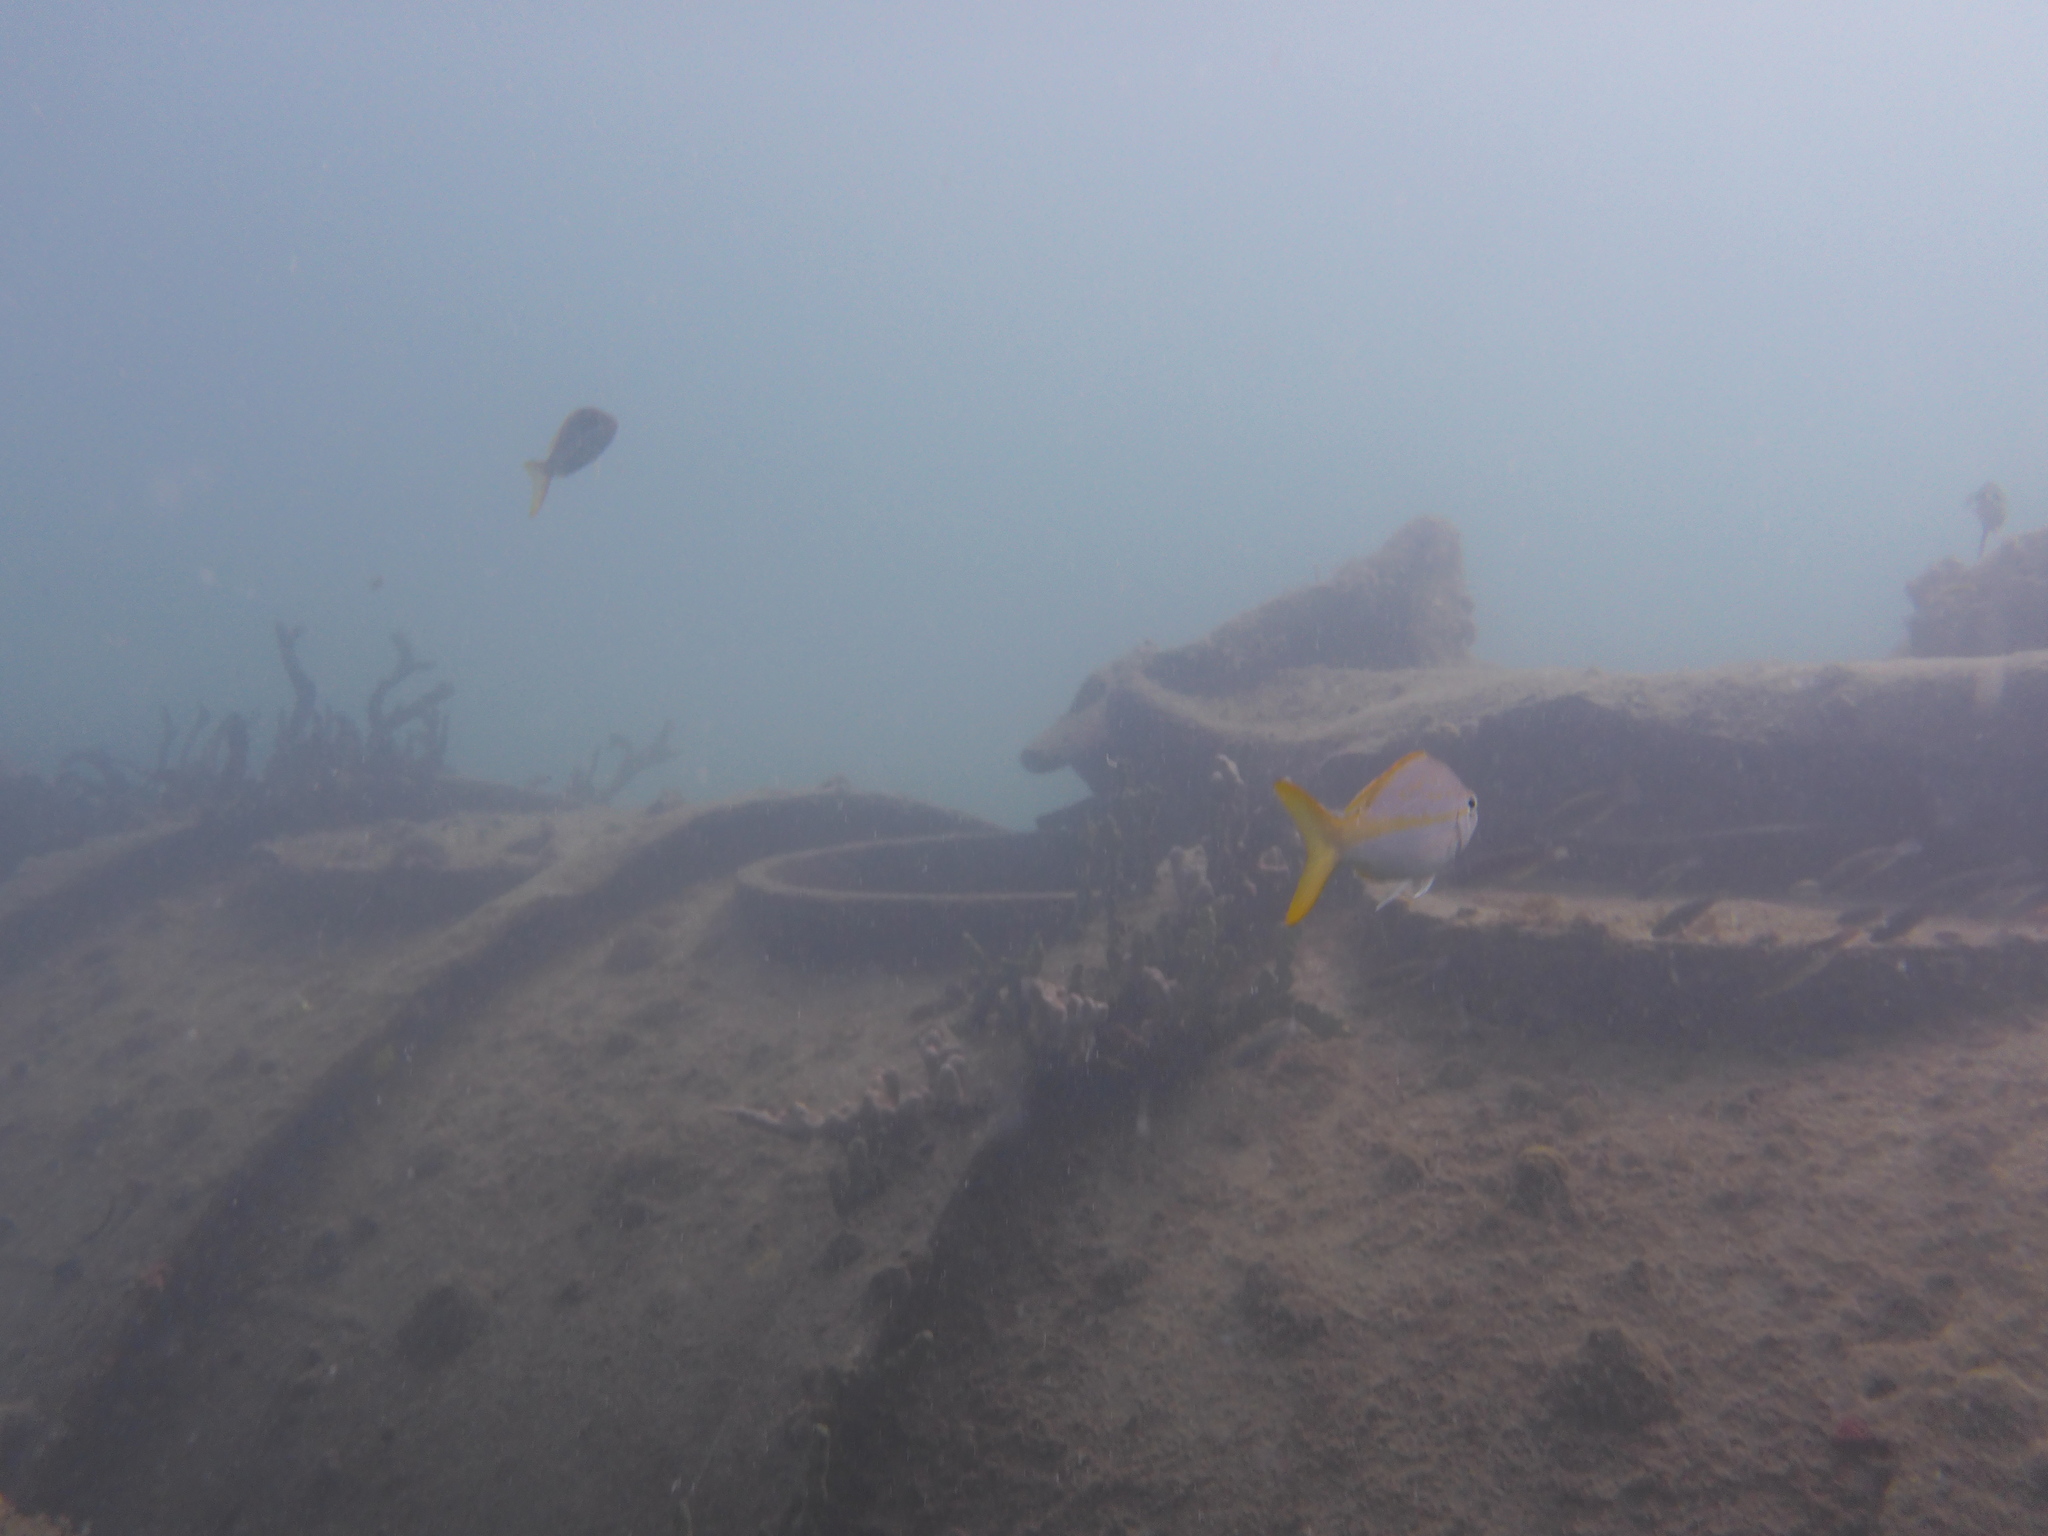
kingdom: Animalia
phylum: Chordata
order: Perciformes
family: Lutjanidae
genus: Ocyurus
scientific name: Ocyurus chrysurus
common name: Yellowtail snapper
